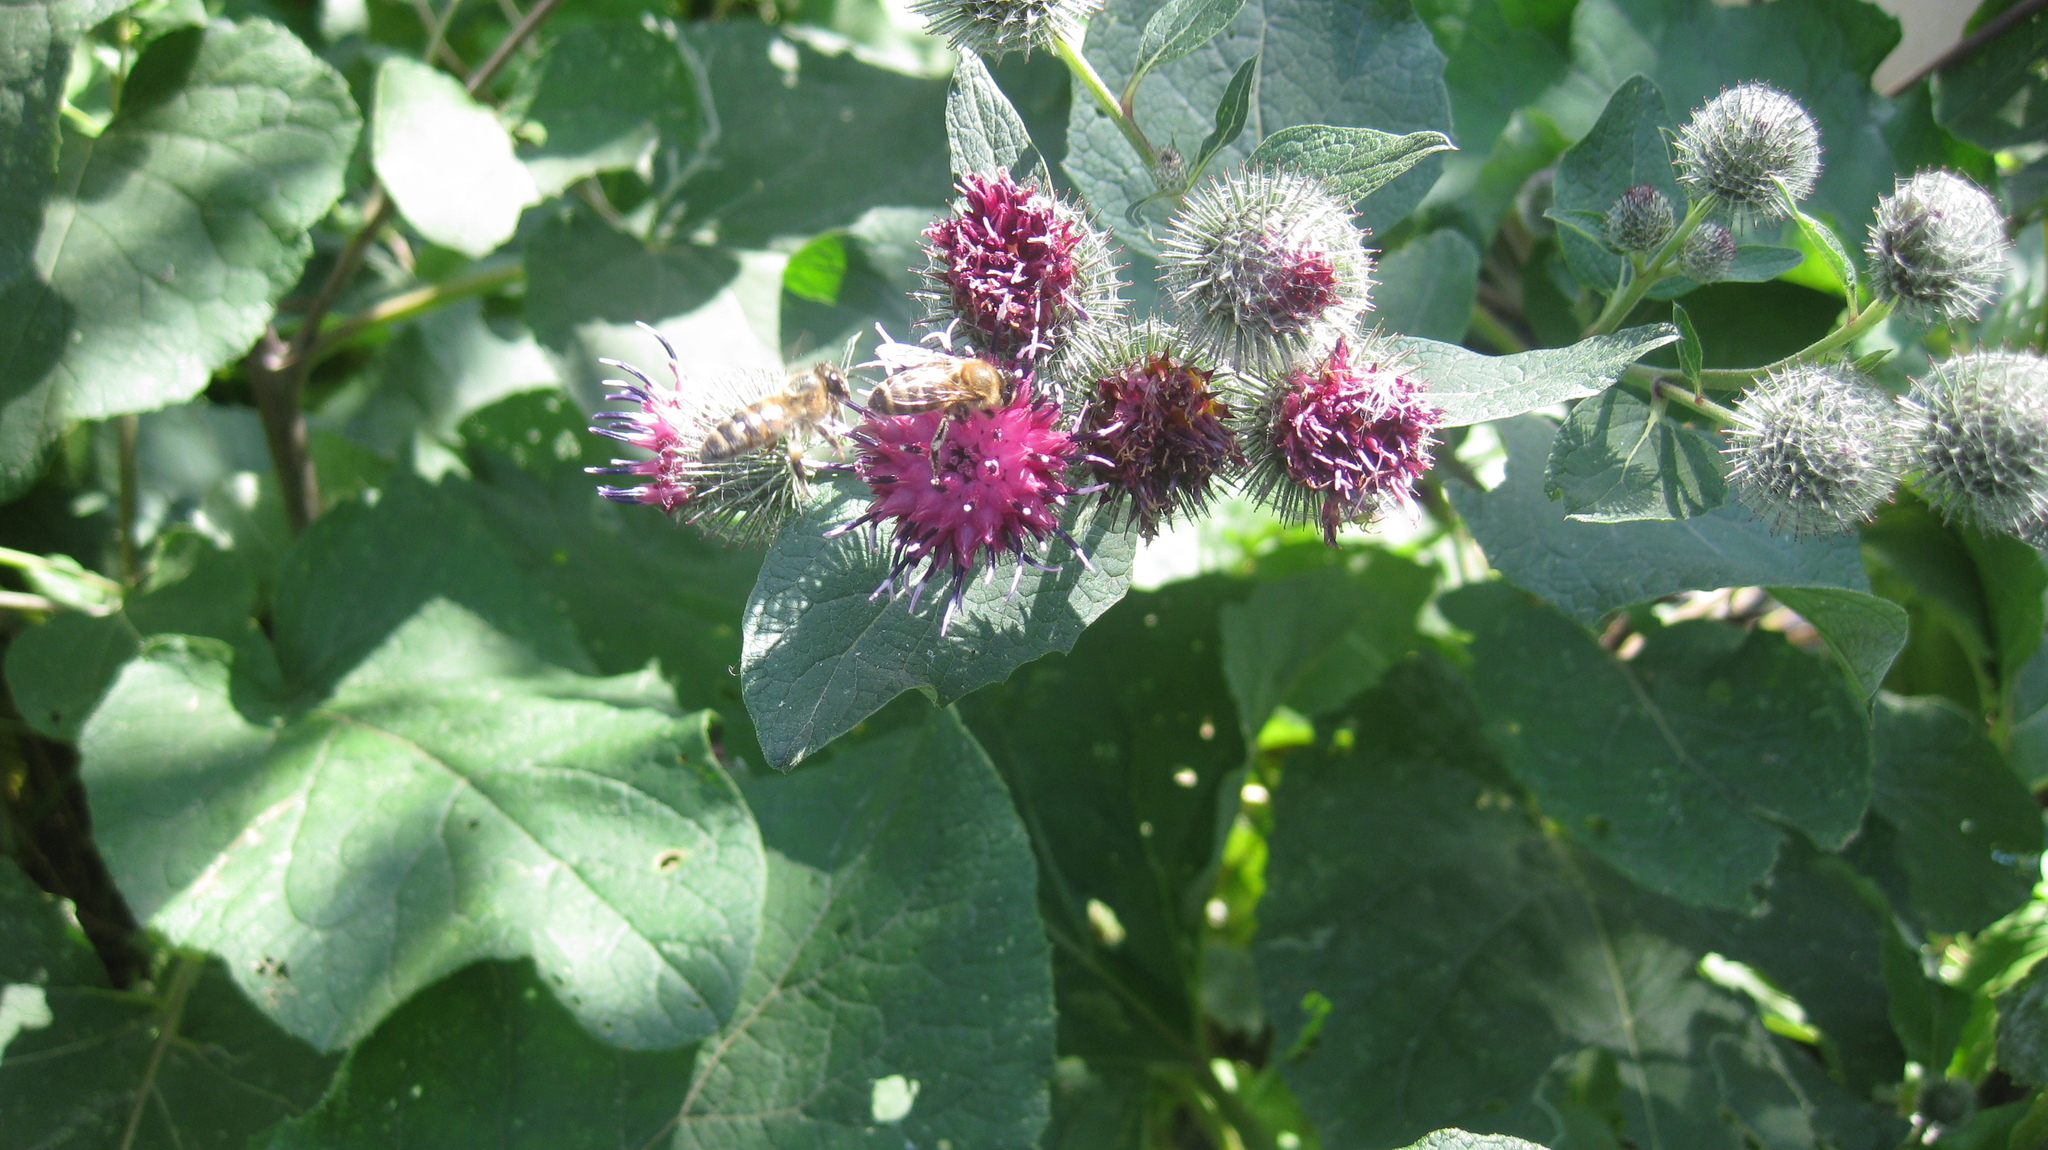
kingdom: Plantae
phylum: Tracheophyta
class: Magnoliopsida
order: Asterales
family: Asteraceae
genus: Arctium
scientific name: Arctium tomentosum
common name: Woolly burdock
